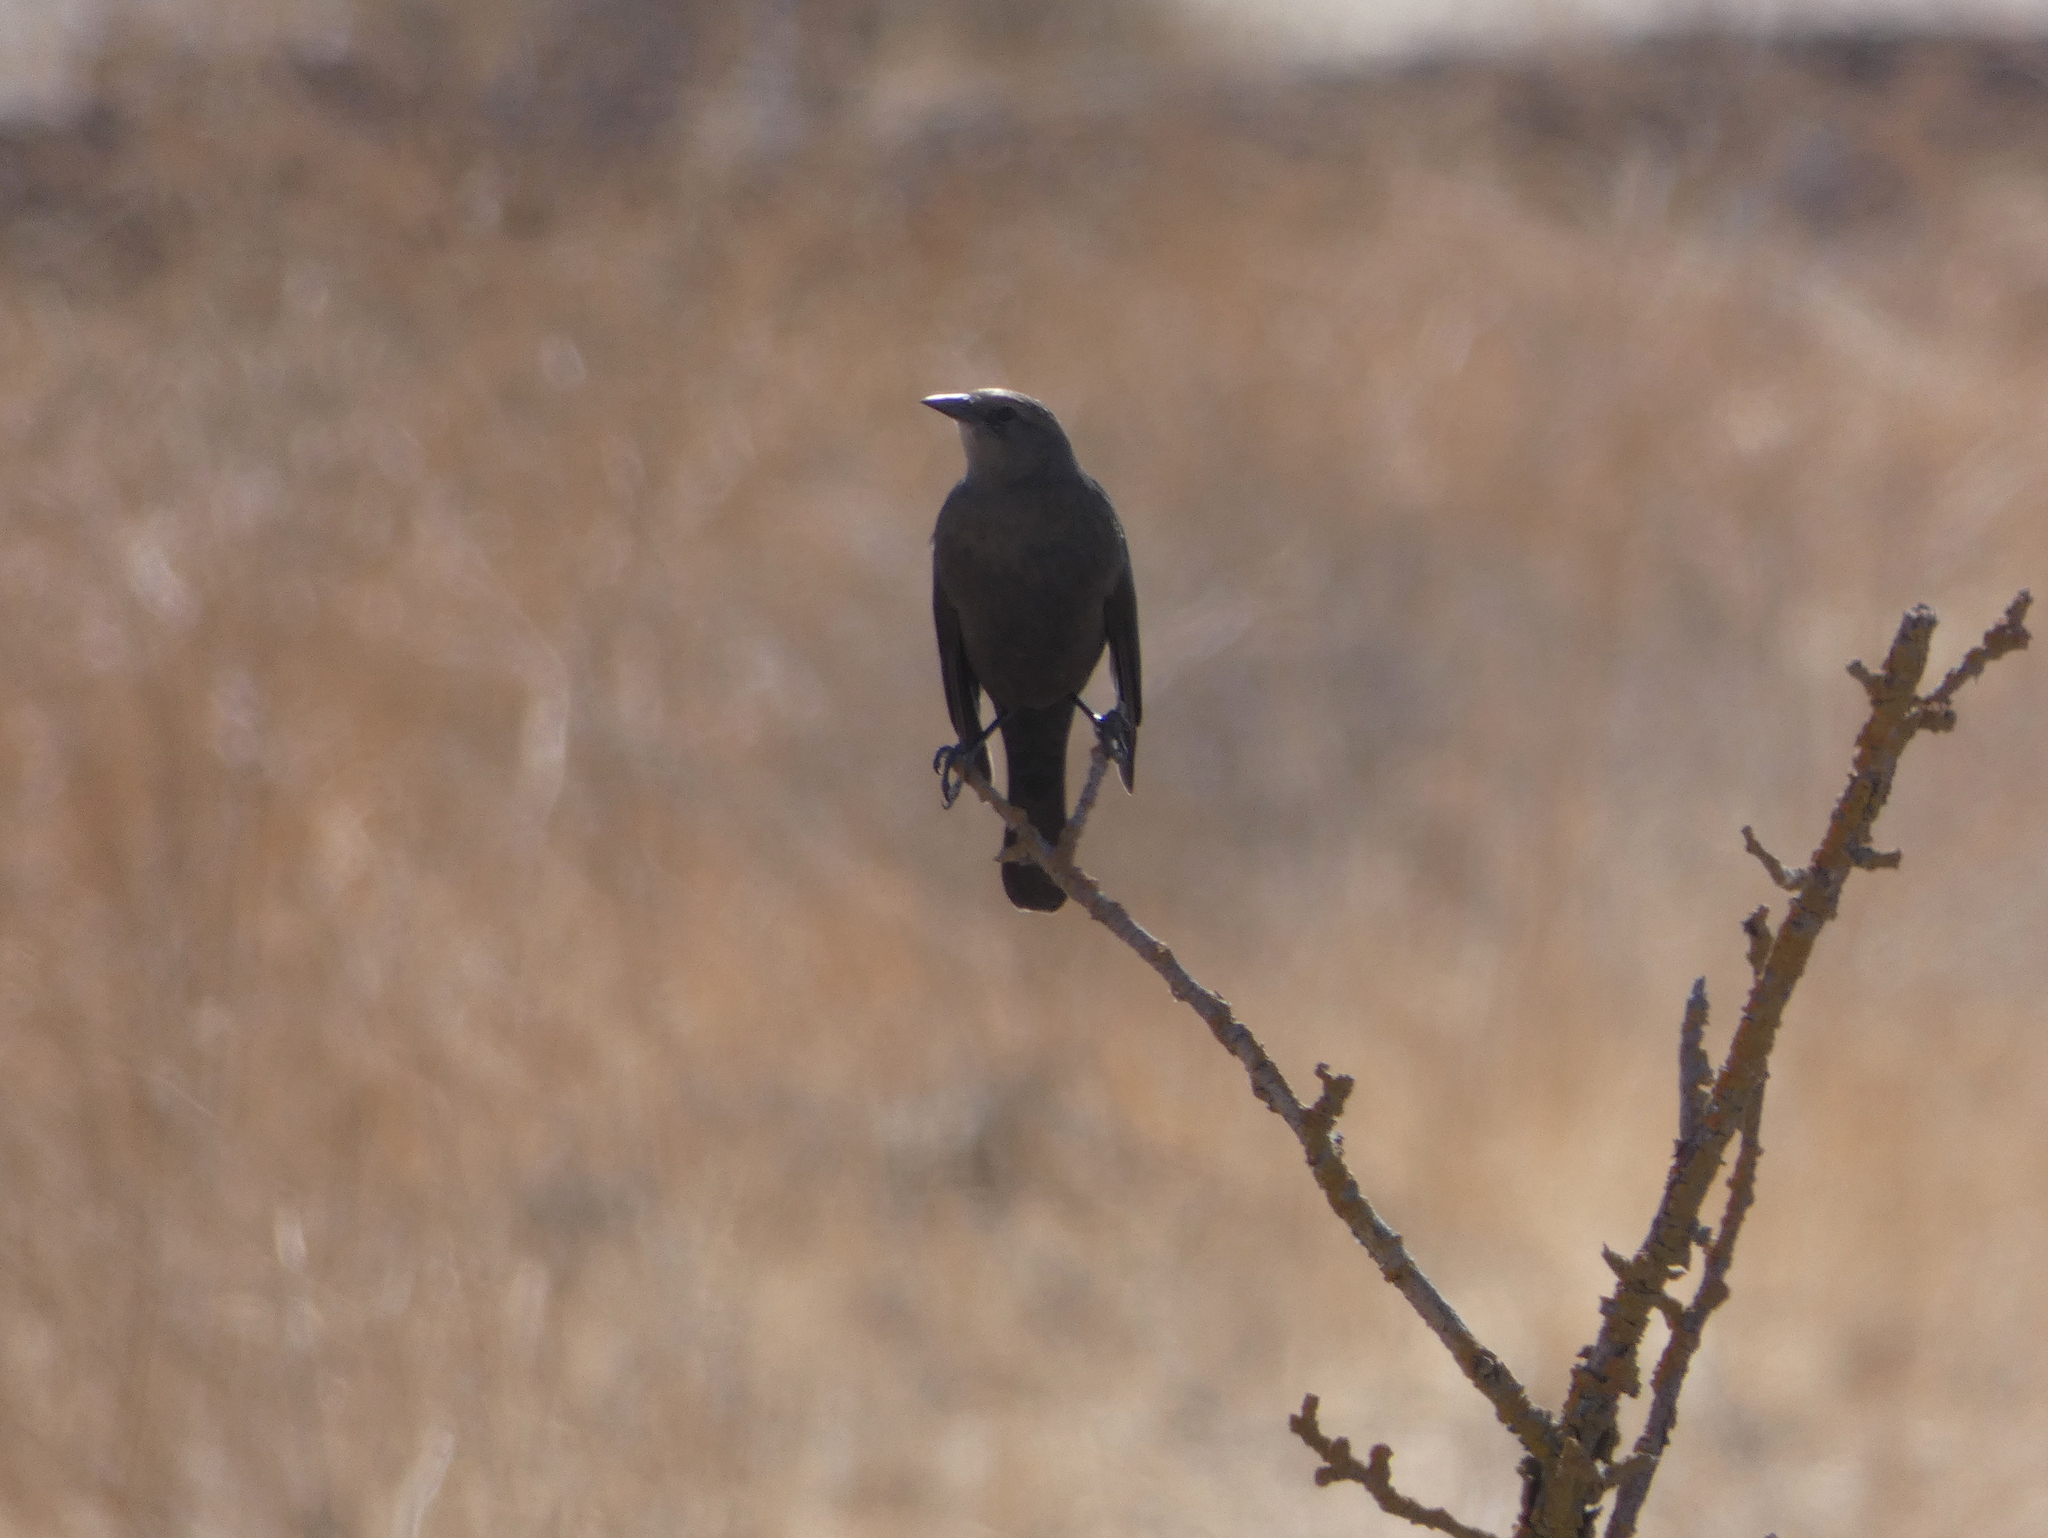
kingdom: Animalia
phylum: Chordata
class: Aves
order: Passeriformes
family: Icteridae
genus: Euphagus
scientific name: Euphagus cyanocephalus
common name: Brewer's blackbird
